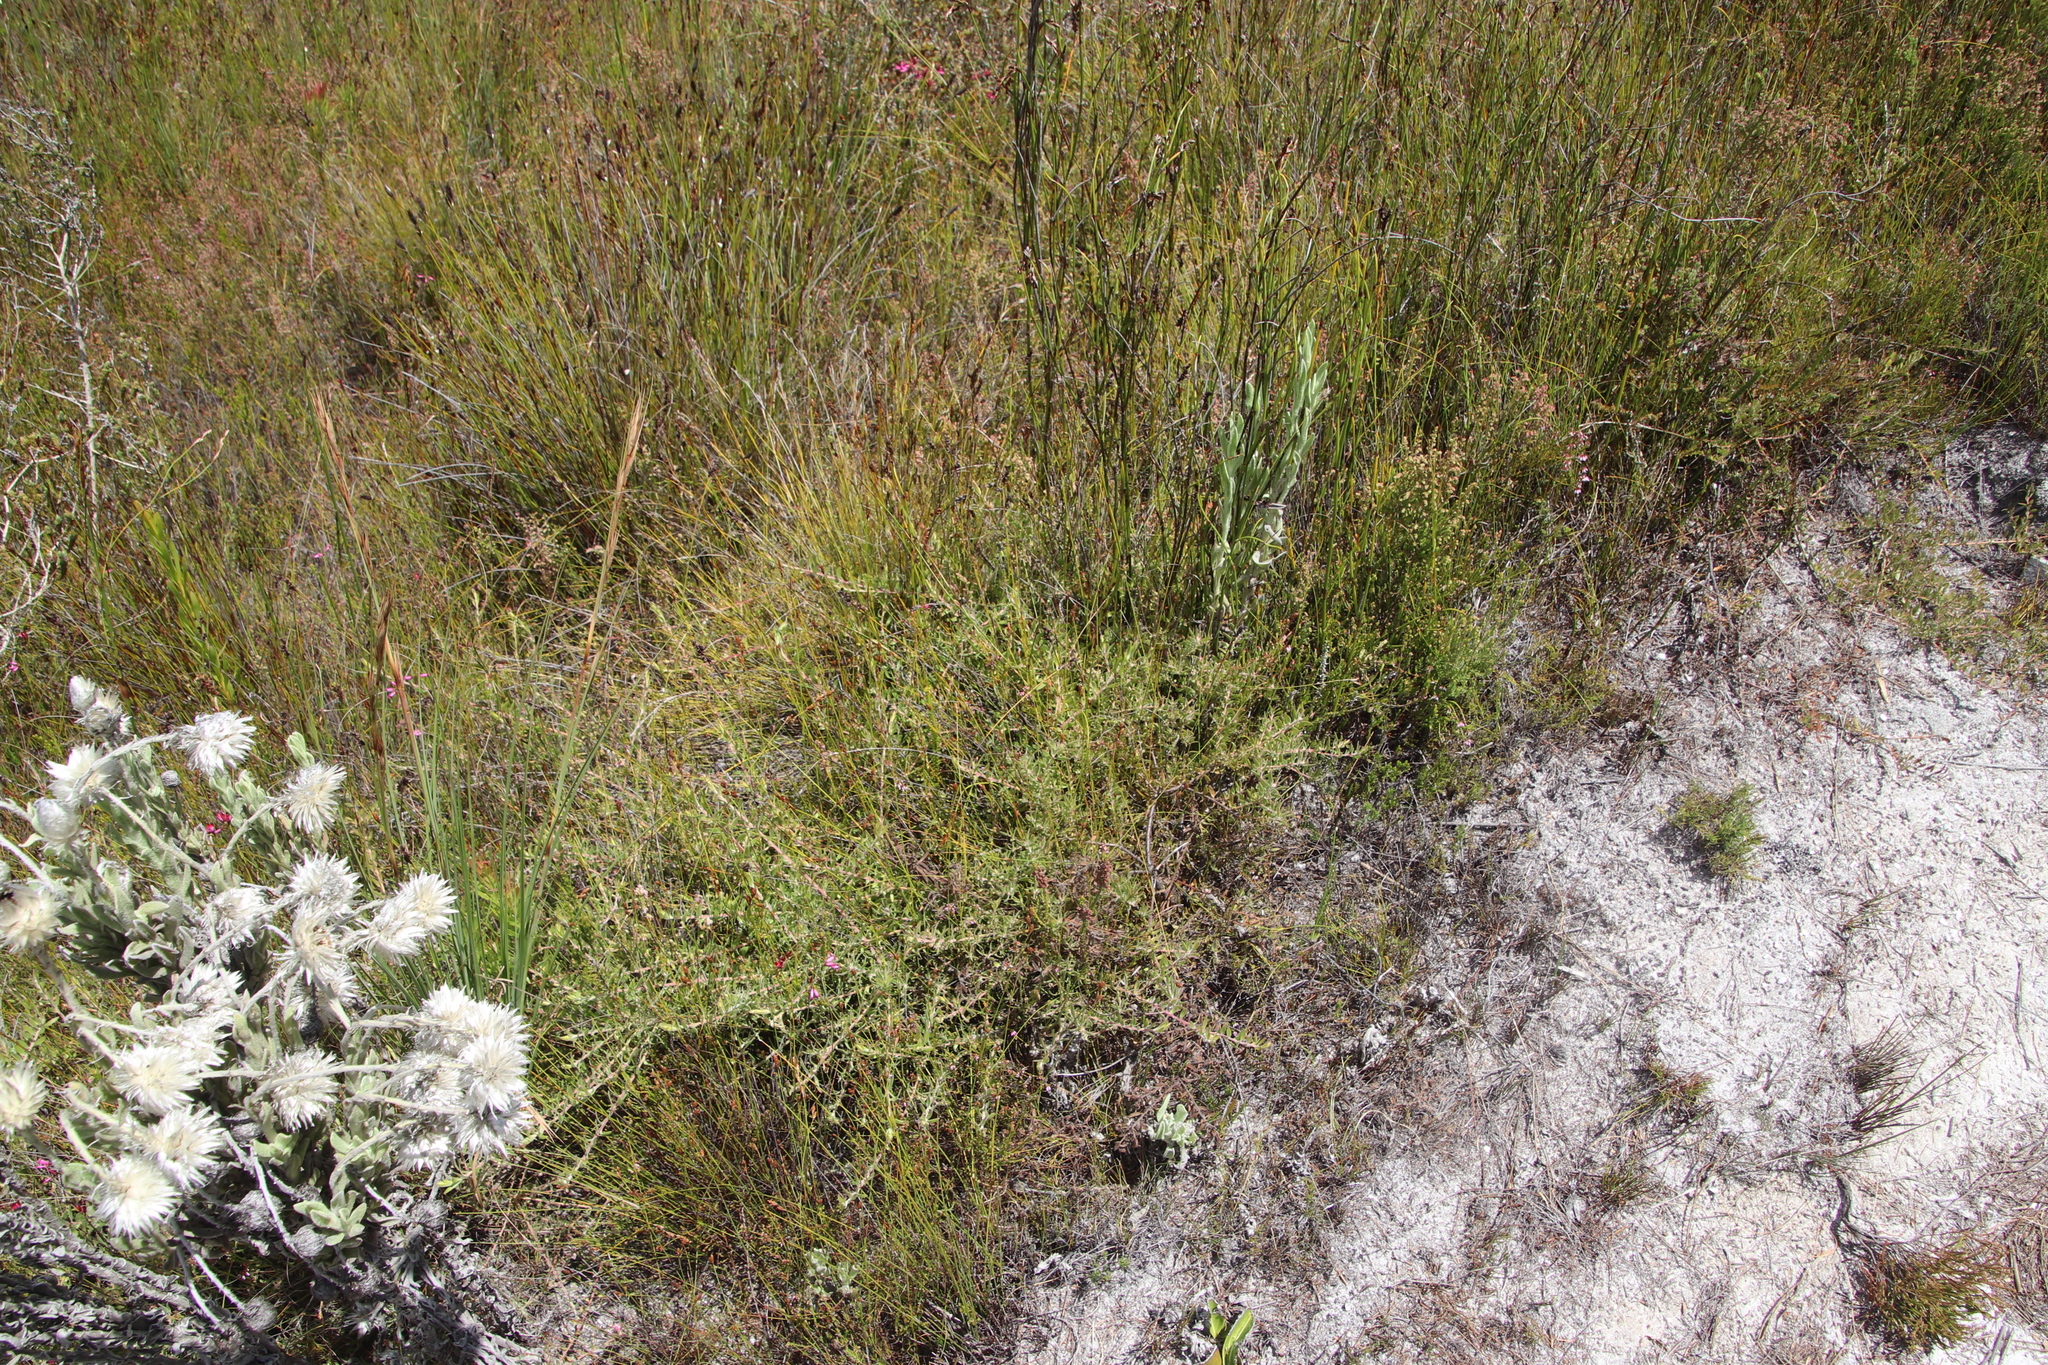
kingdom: Plantae
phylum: Tracheophyta
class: Magnoliopsida
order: Proteales
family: Proteaceae
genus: Diastella
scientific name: Diastella divaricata
